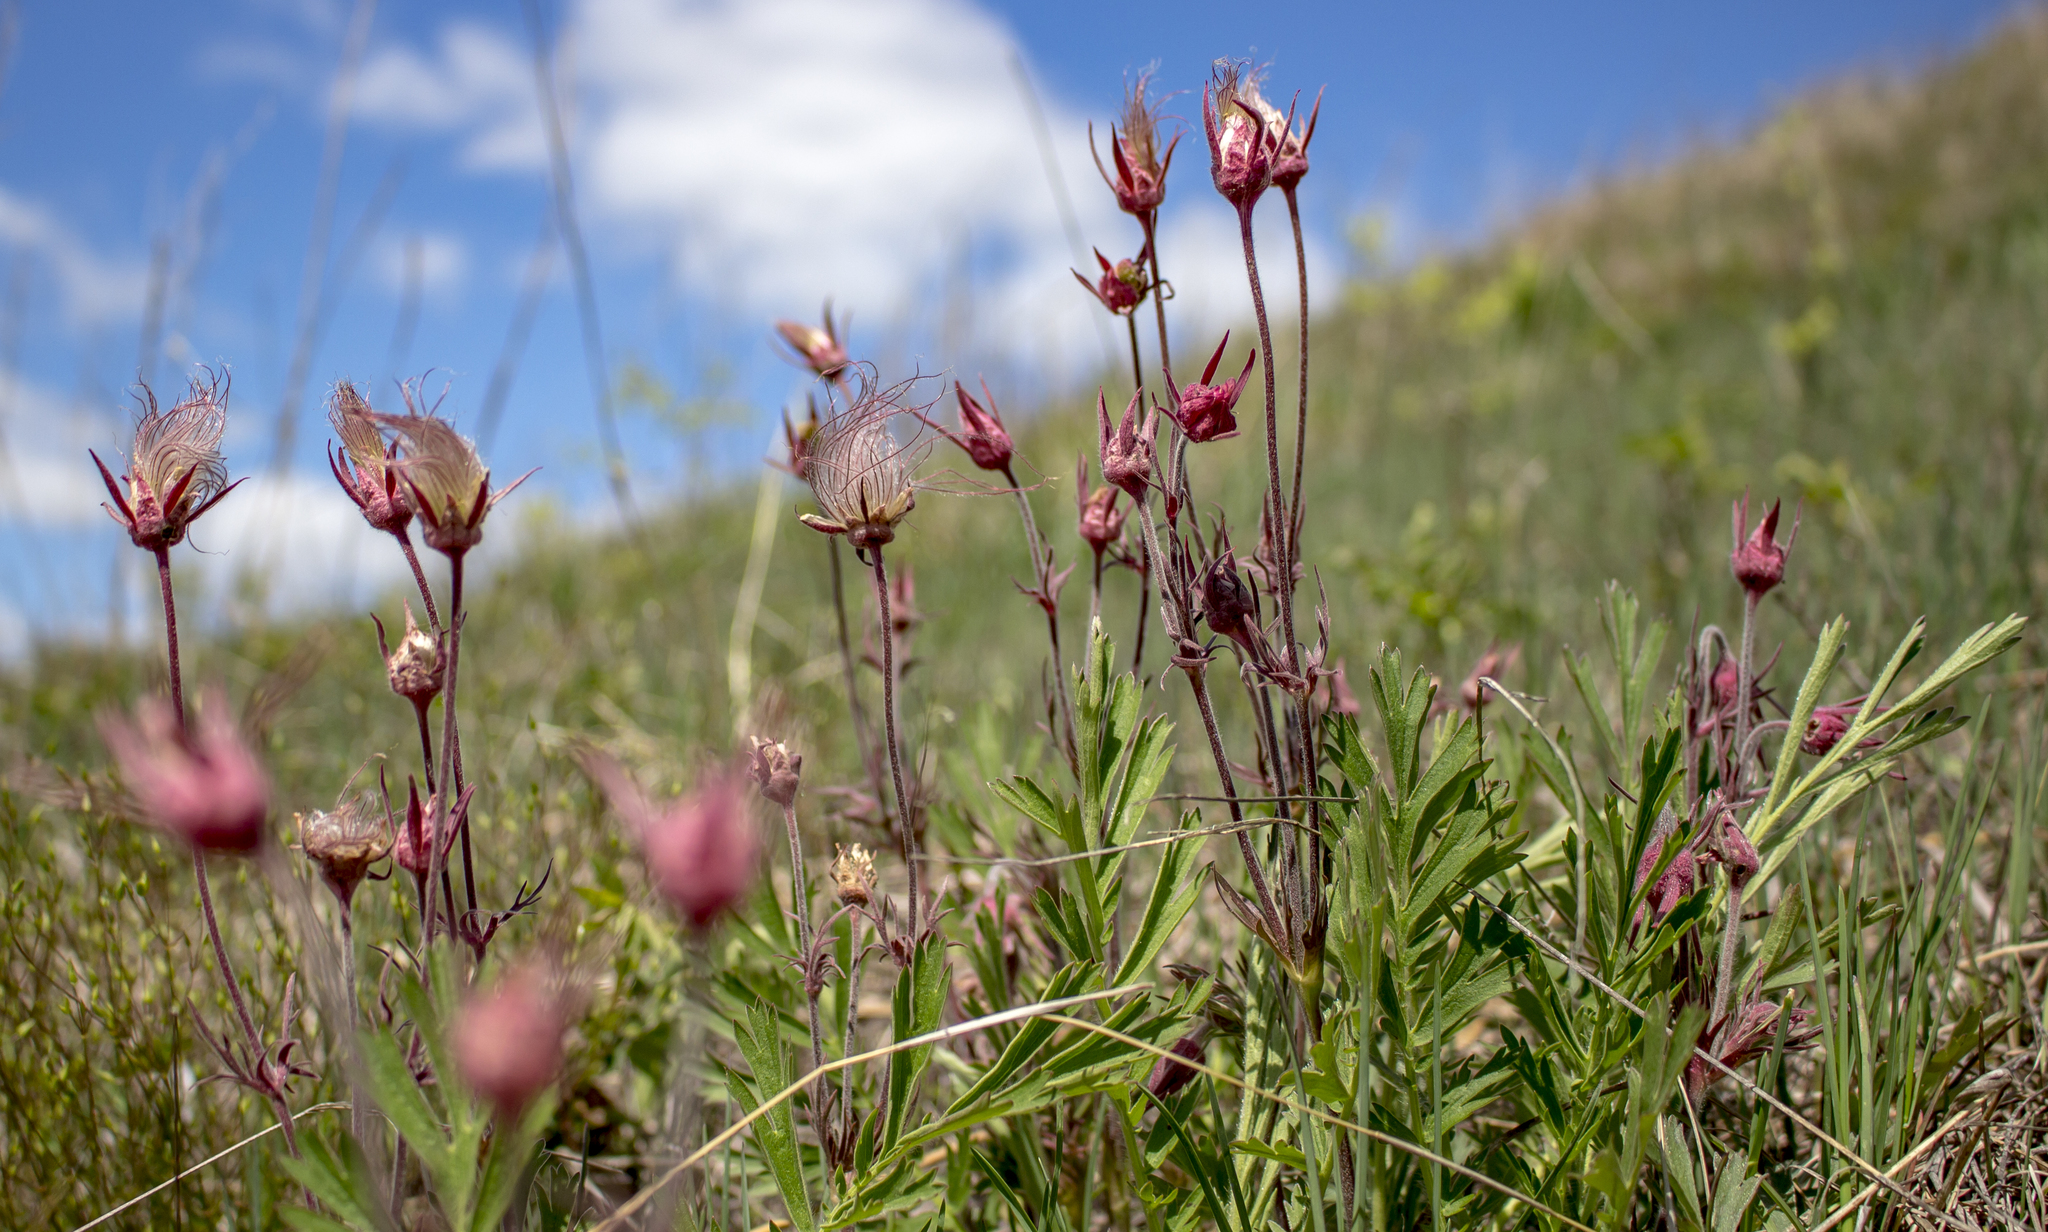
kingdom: Plantae
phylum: Tracheophyta
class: Magnoliopsida
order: Rosales
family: Rosaceae
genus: Geum
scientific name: Geum triflorum
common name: Old man's whiskers
